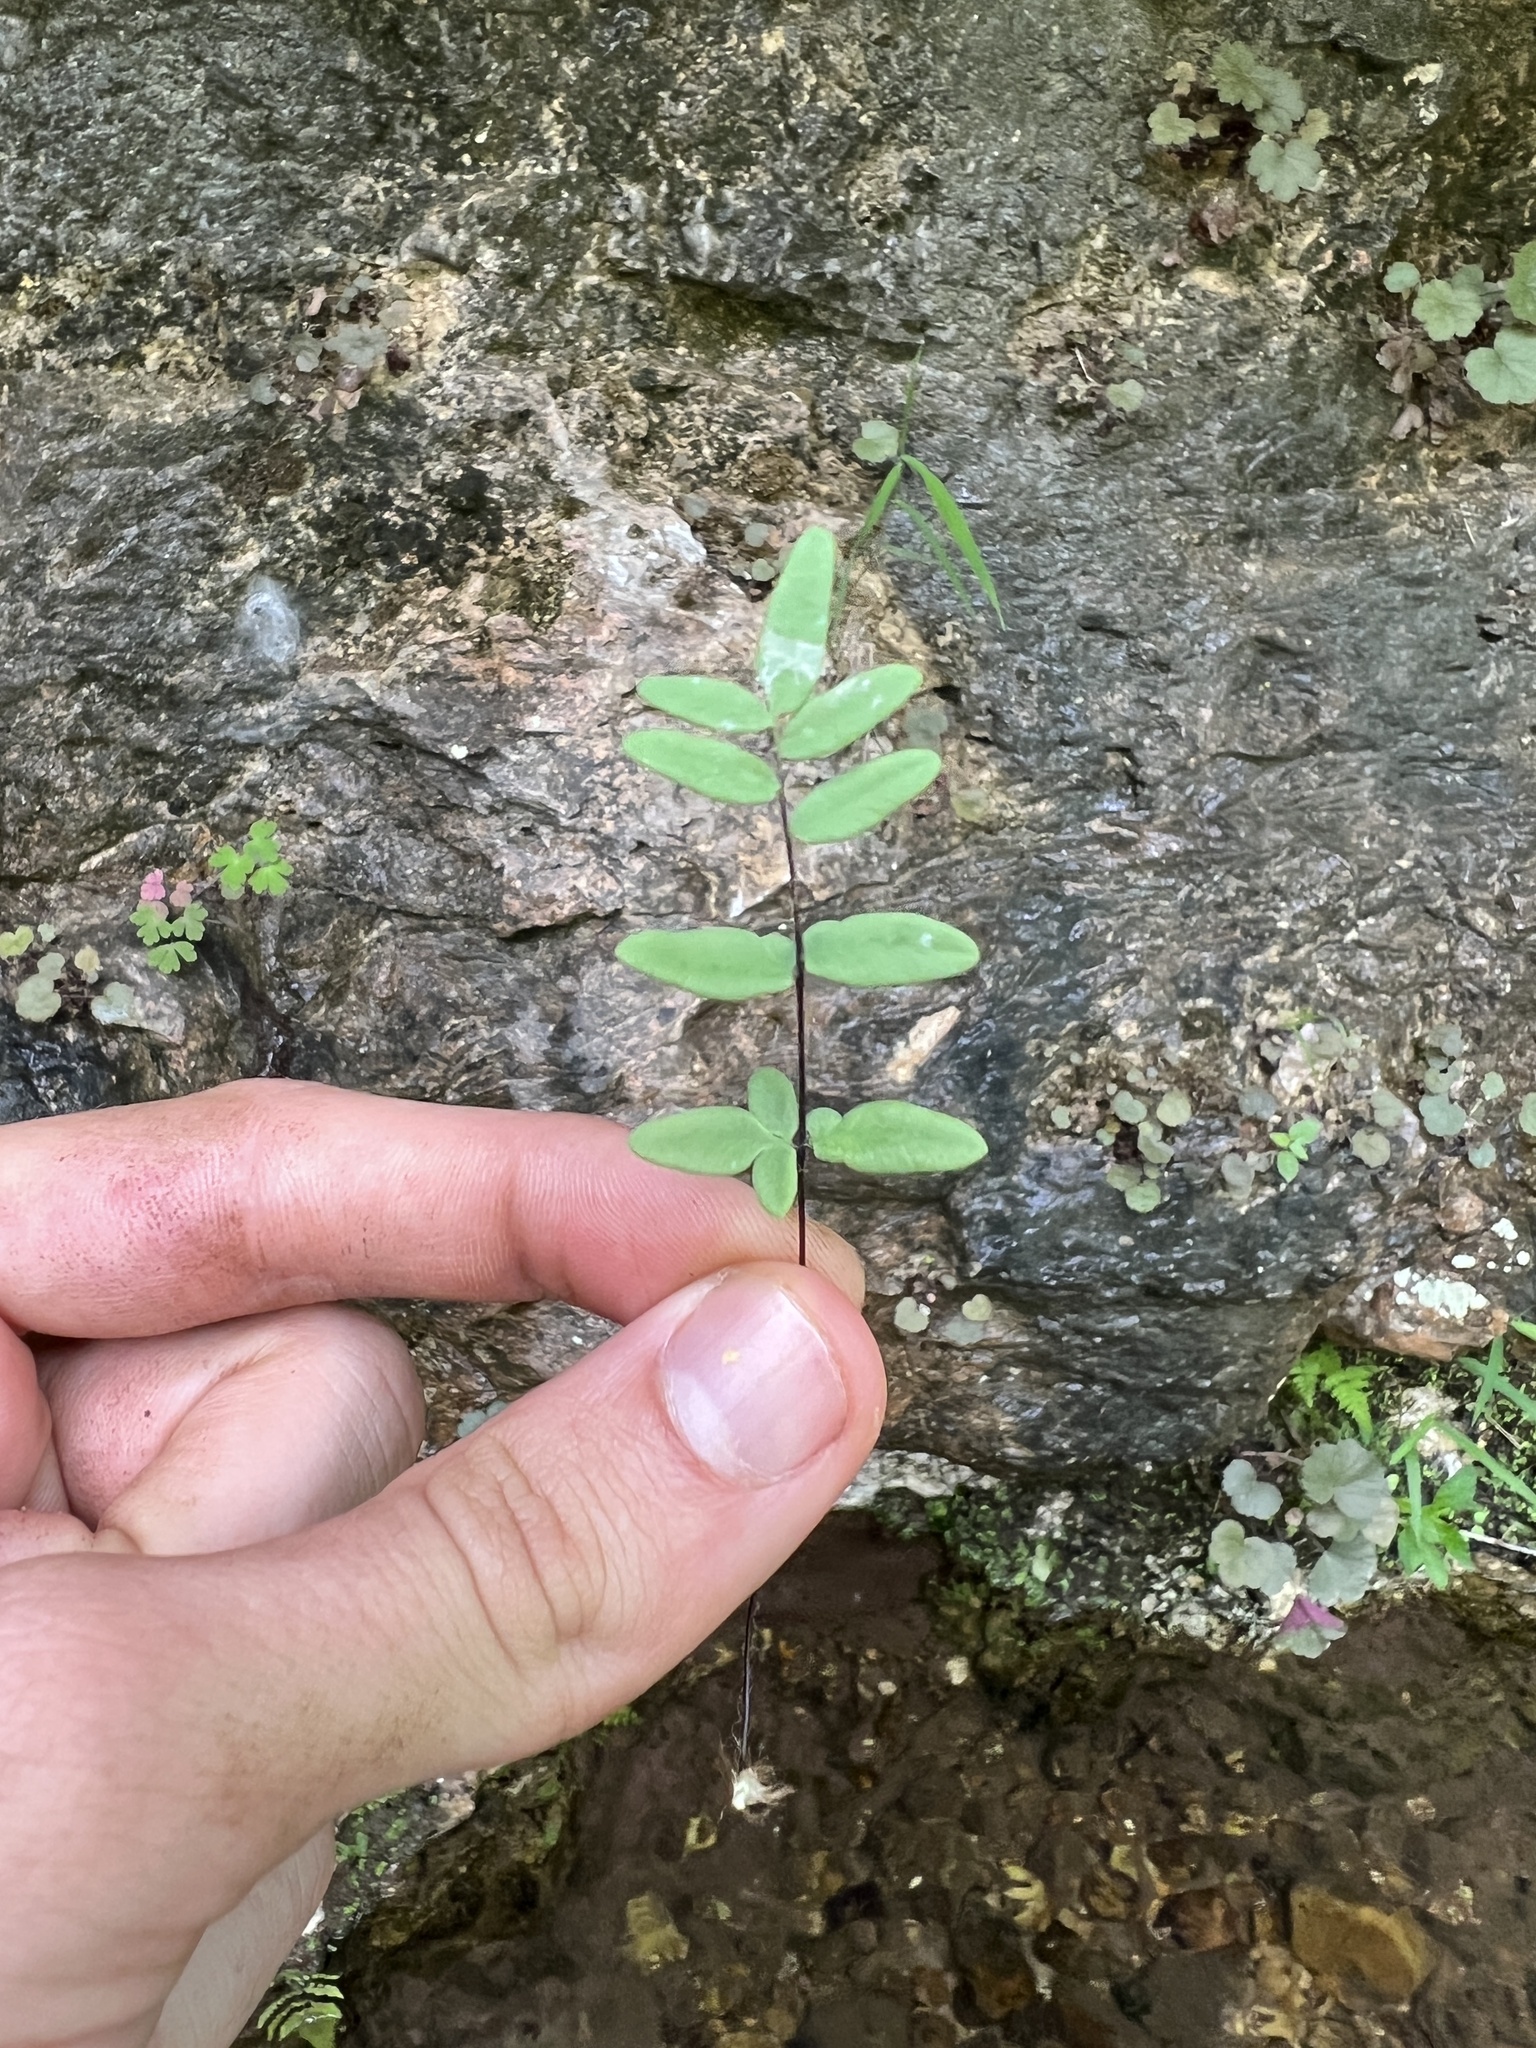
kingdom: Plantae
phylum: Tracheophyta
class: Polypodiopsida
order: Polypodiales
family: Pteridaceae
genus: Pellaea
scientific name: Pellaea glabella
